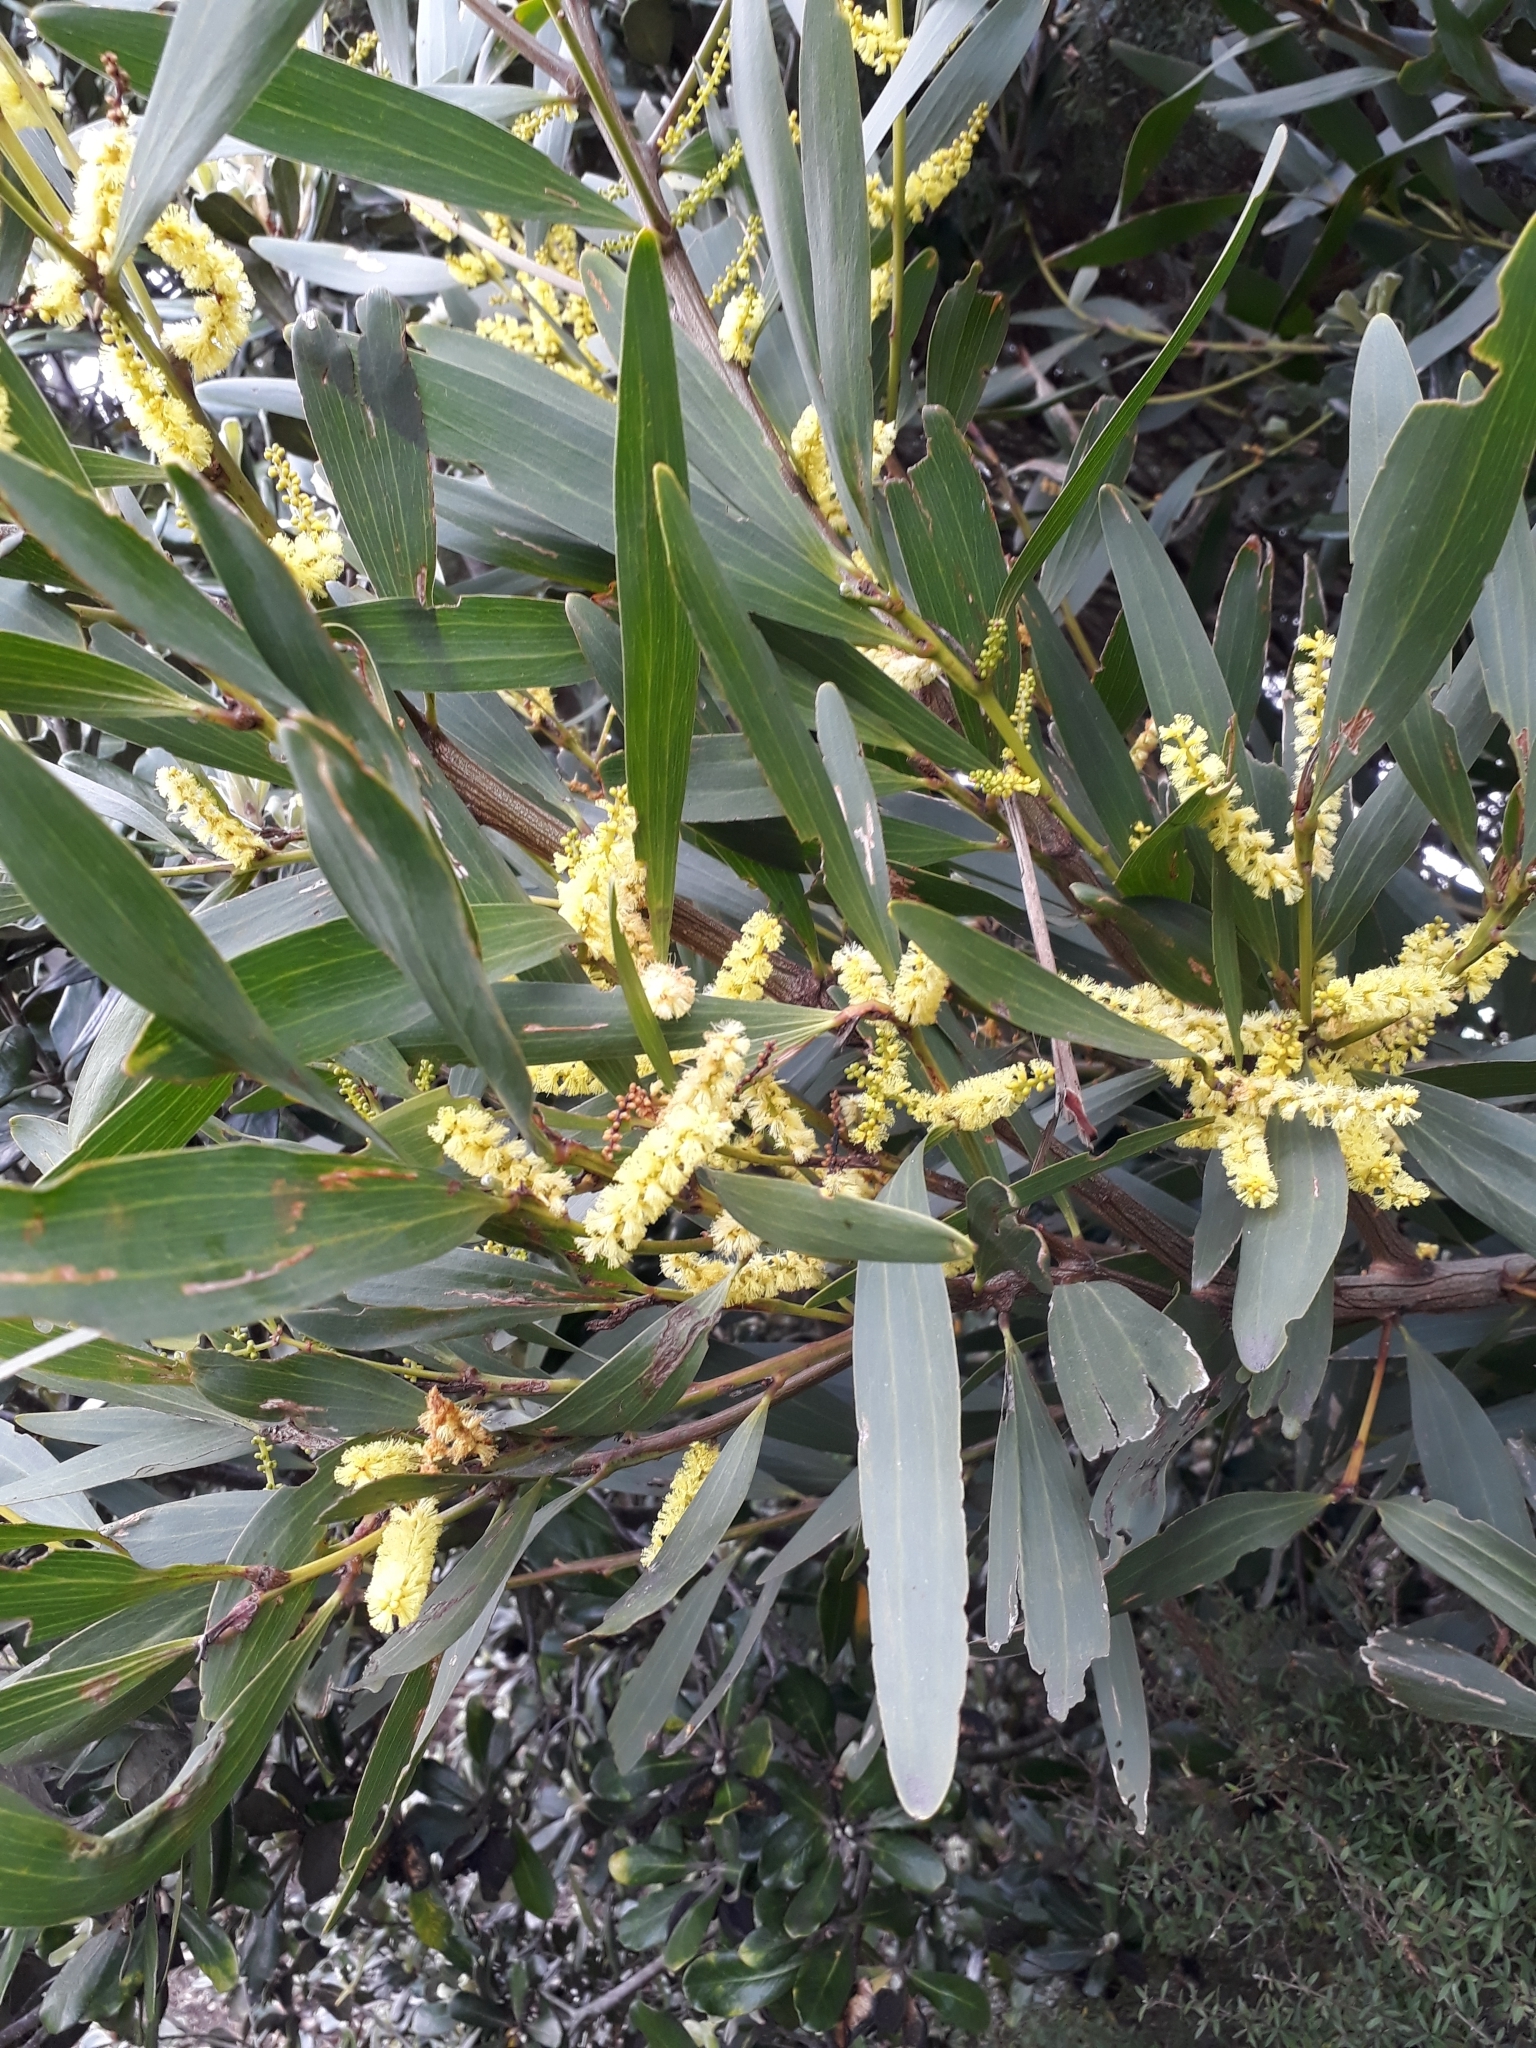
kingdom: Plantae
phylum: Tracheophyta
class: Magnoliopsida
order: Fabales
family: Fabaceae
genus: Acacia
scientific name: Acacia longifolia
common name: Sydney golden wattle
